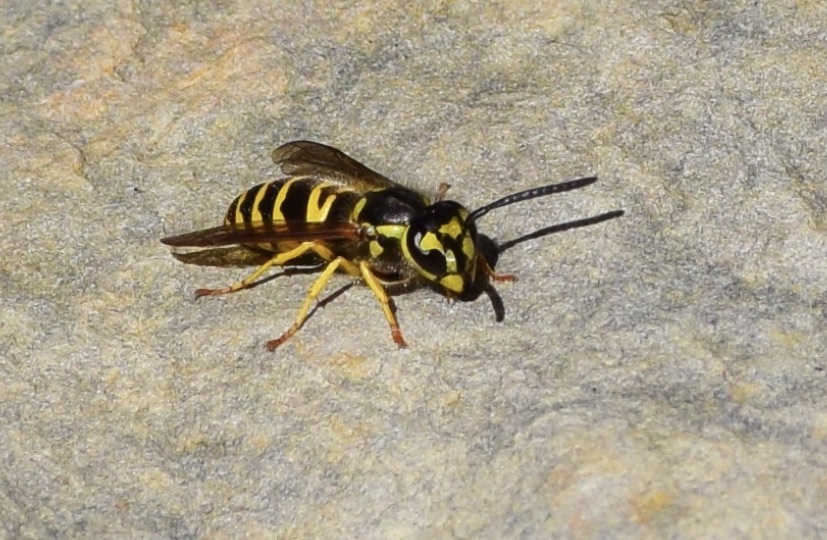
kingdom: Animalia
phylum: Arthropoda
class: Insecta
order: Hymenoptera
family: Vespidae
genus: Vespula
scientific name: Vespula maculifrons
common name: Eastern yellowjacket
